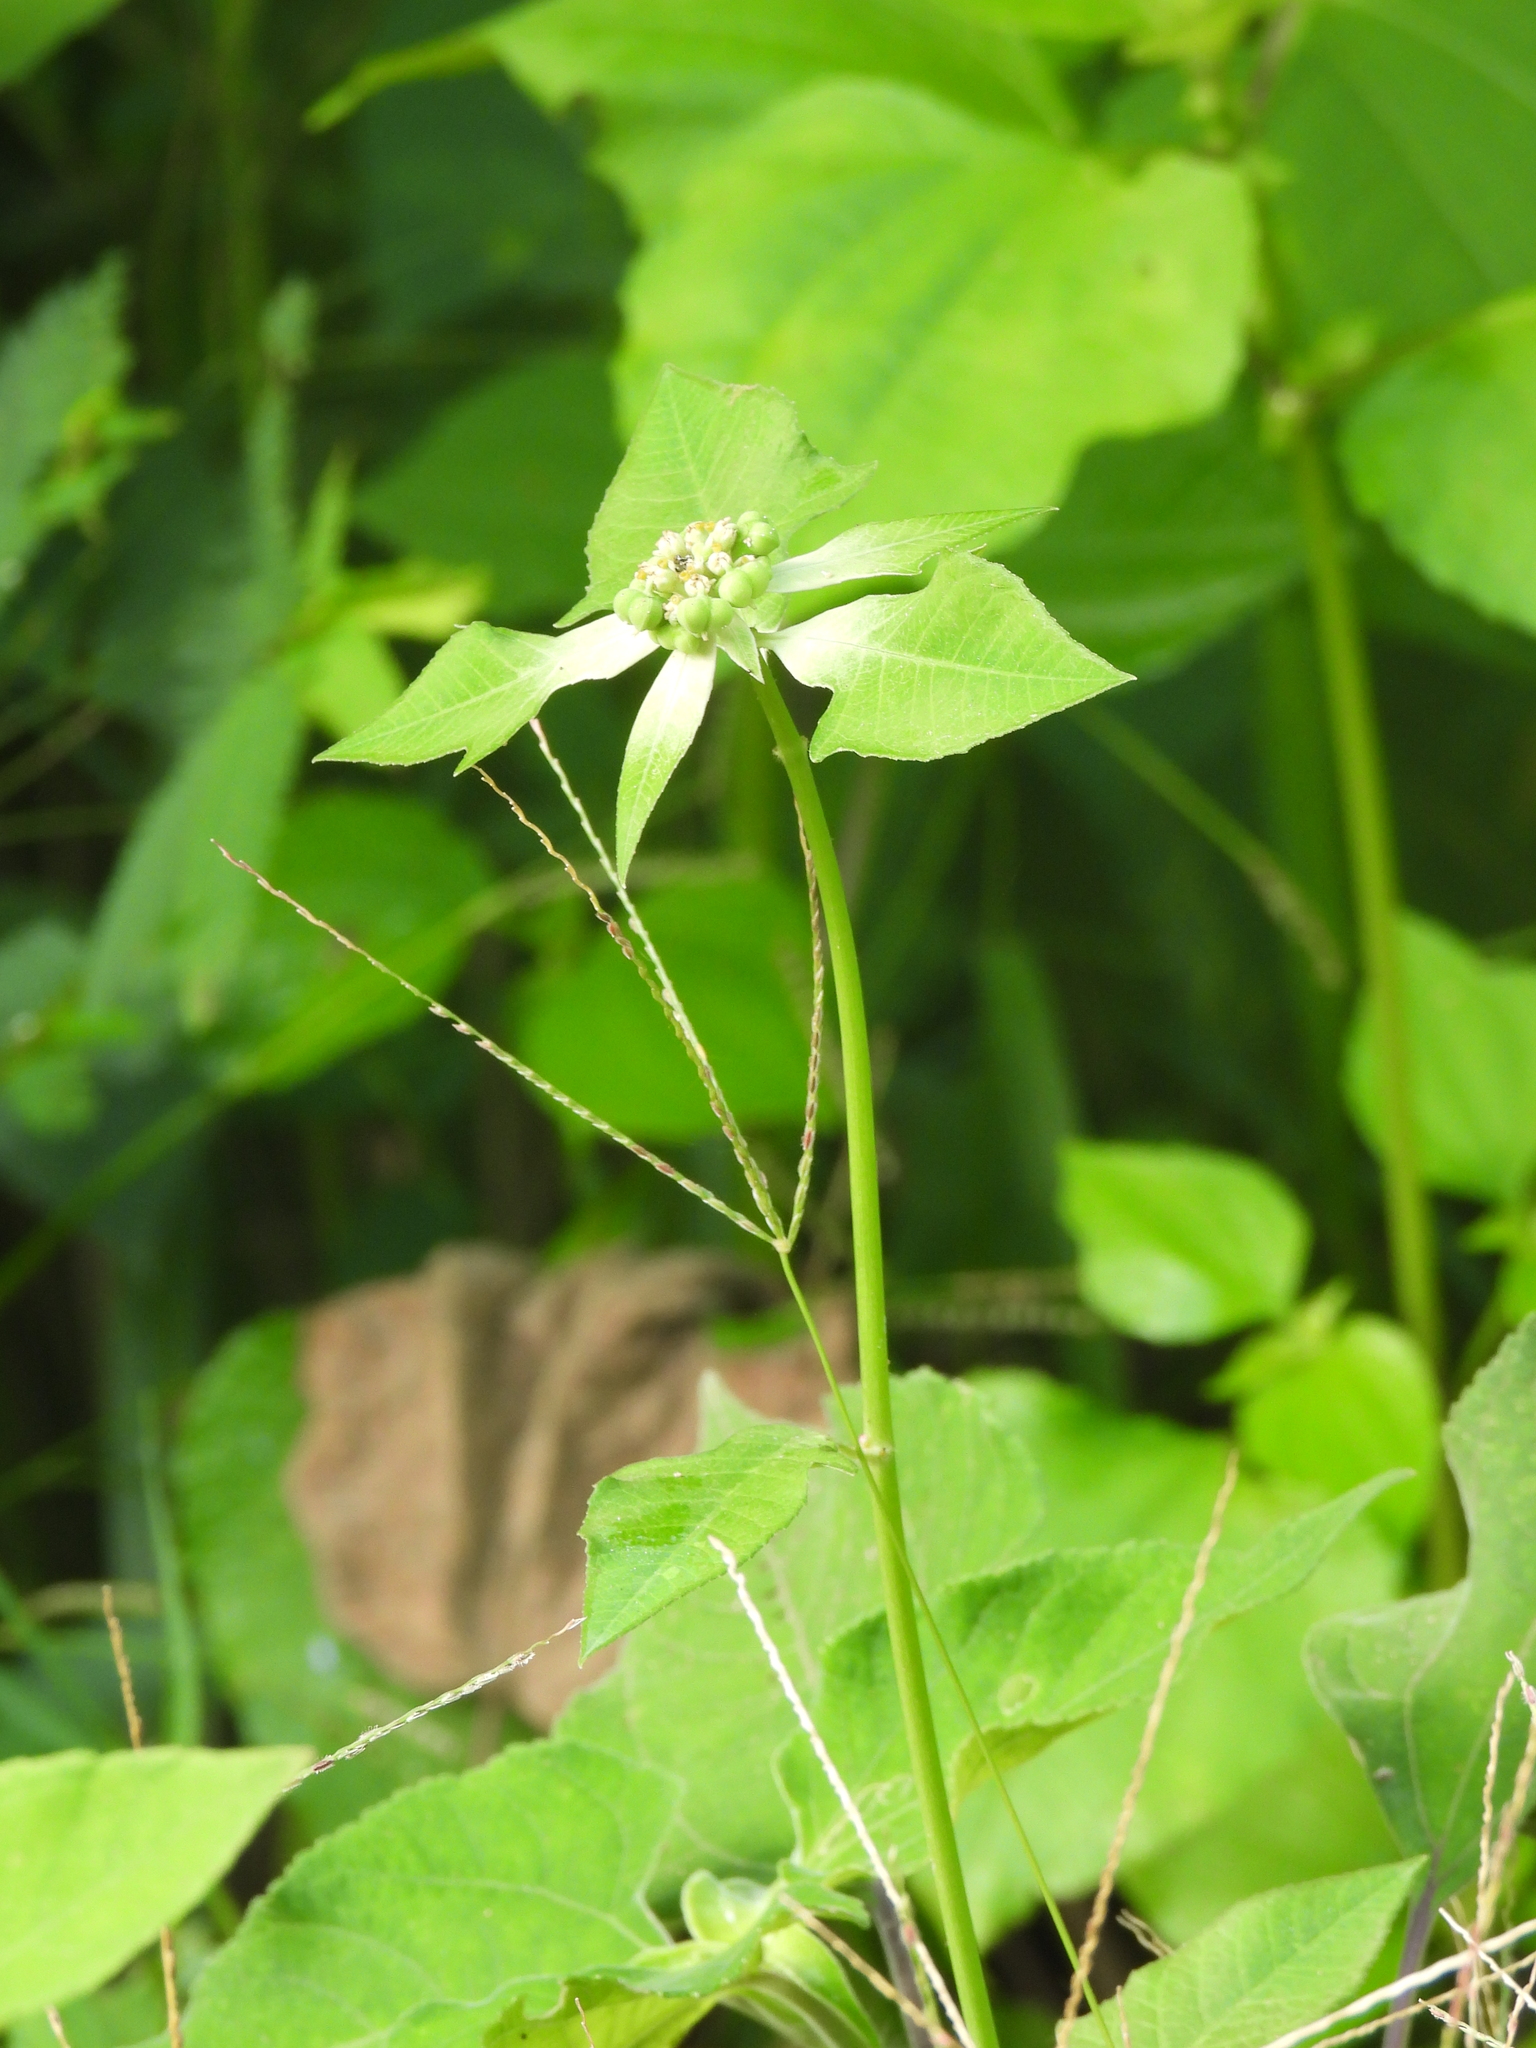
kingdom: Plantae
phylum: Tracheophyta
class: Magnoliopsida
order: Malpighiales
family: Euphorbiaceae
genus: Euphorbia
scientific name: Euphorbia heterophylla
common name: Mexican fireplant
